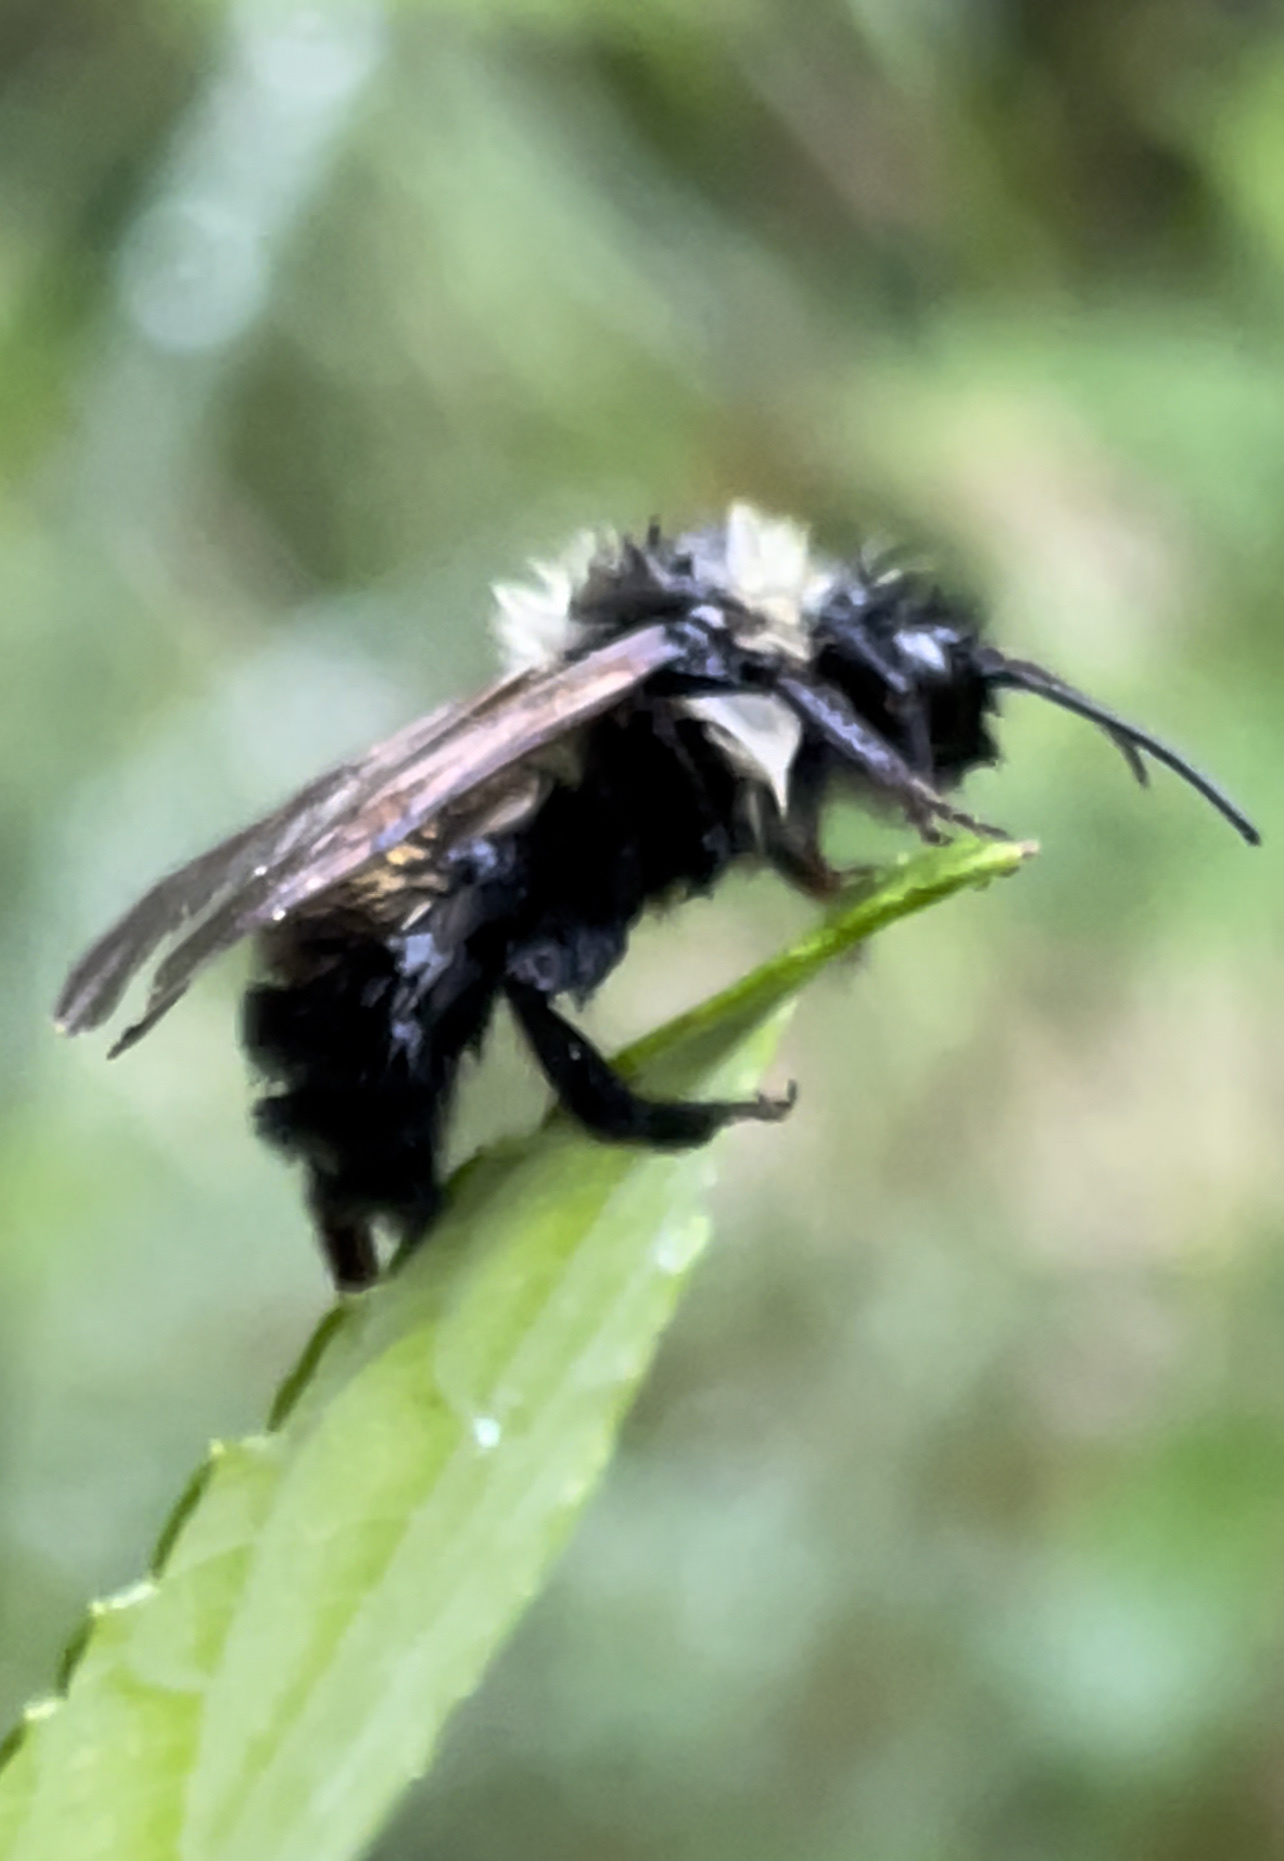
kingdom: Animalia
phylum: Arthropoda
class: Insecta
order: Hymenoptera
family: Apidae
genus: Bombus
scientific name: Bombus citrinus
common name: Lemon cuckoo bumble bee
